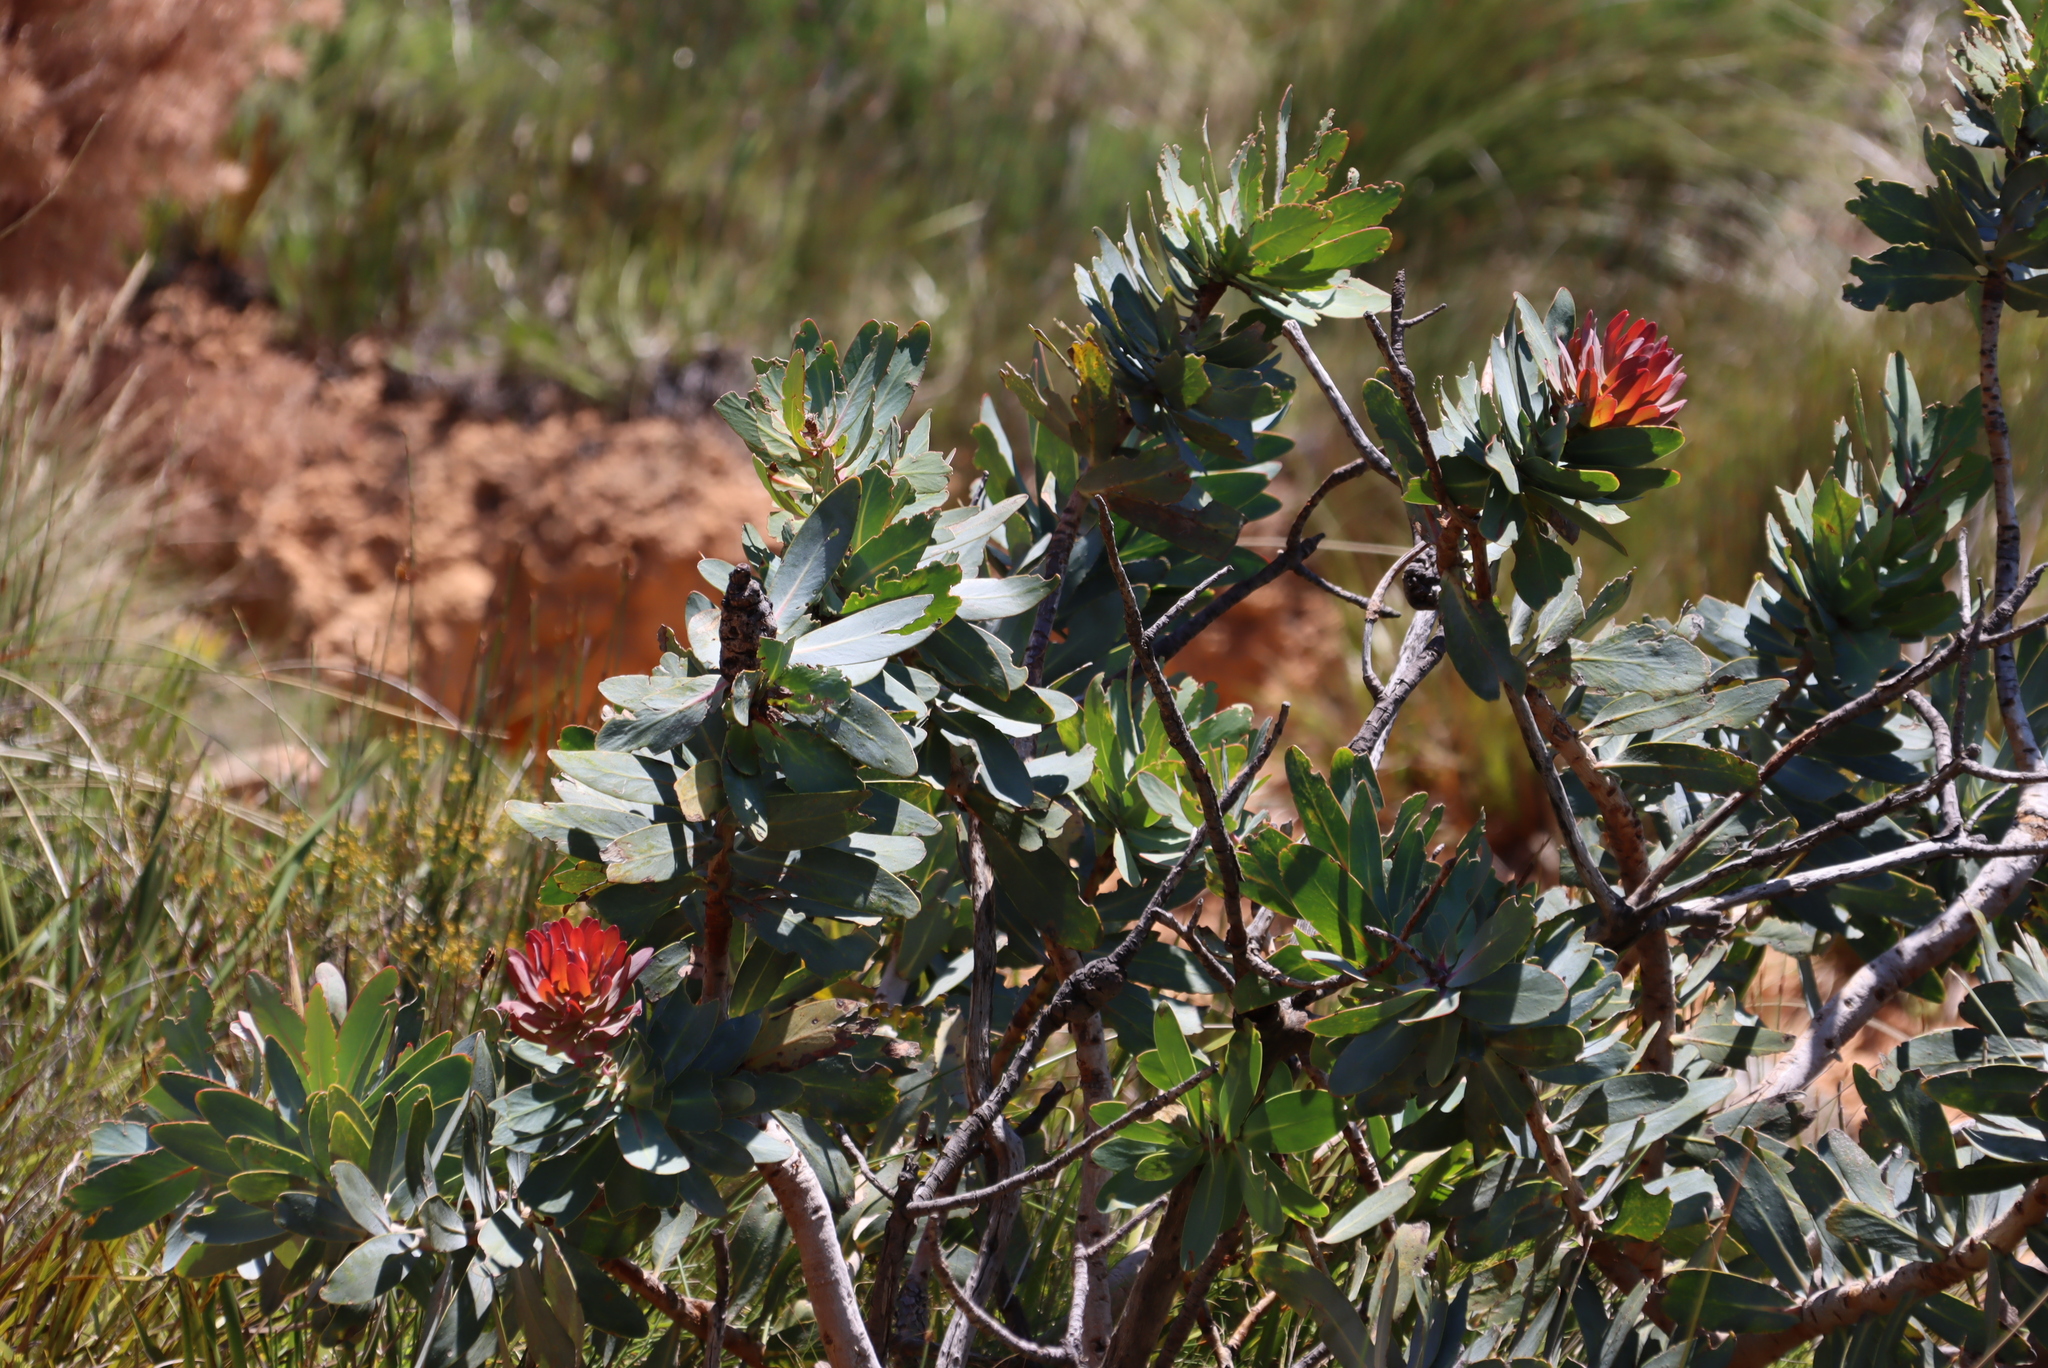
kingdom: Plantae
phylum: Tracheophyta
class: Magnoliopsida
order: Proteales
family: Proteaceae
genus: Protea
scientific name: Protea nitida
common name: Tree protea
